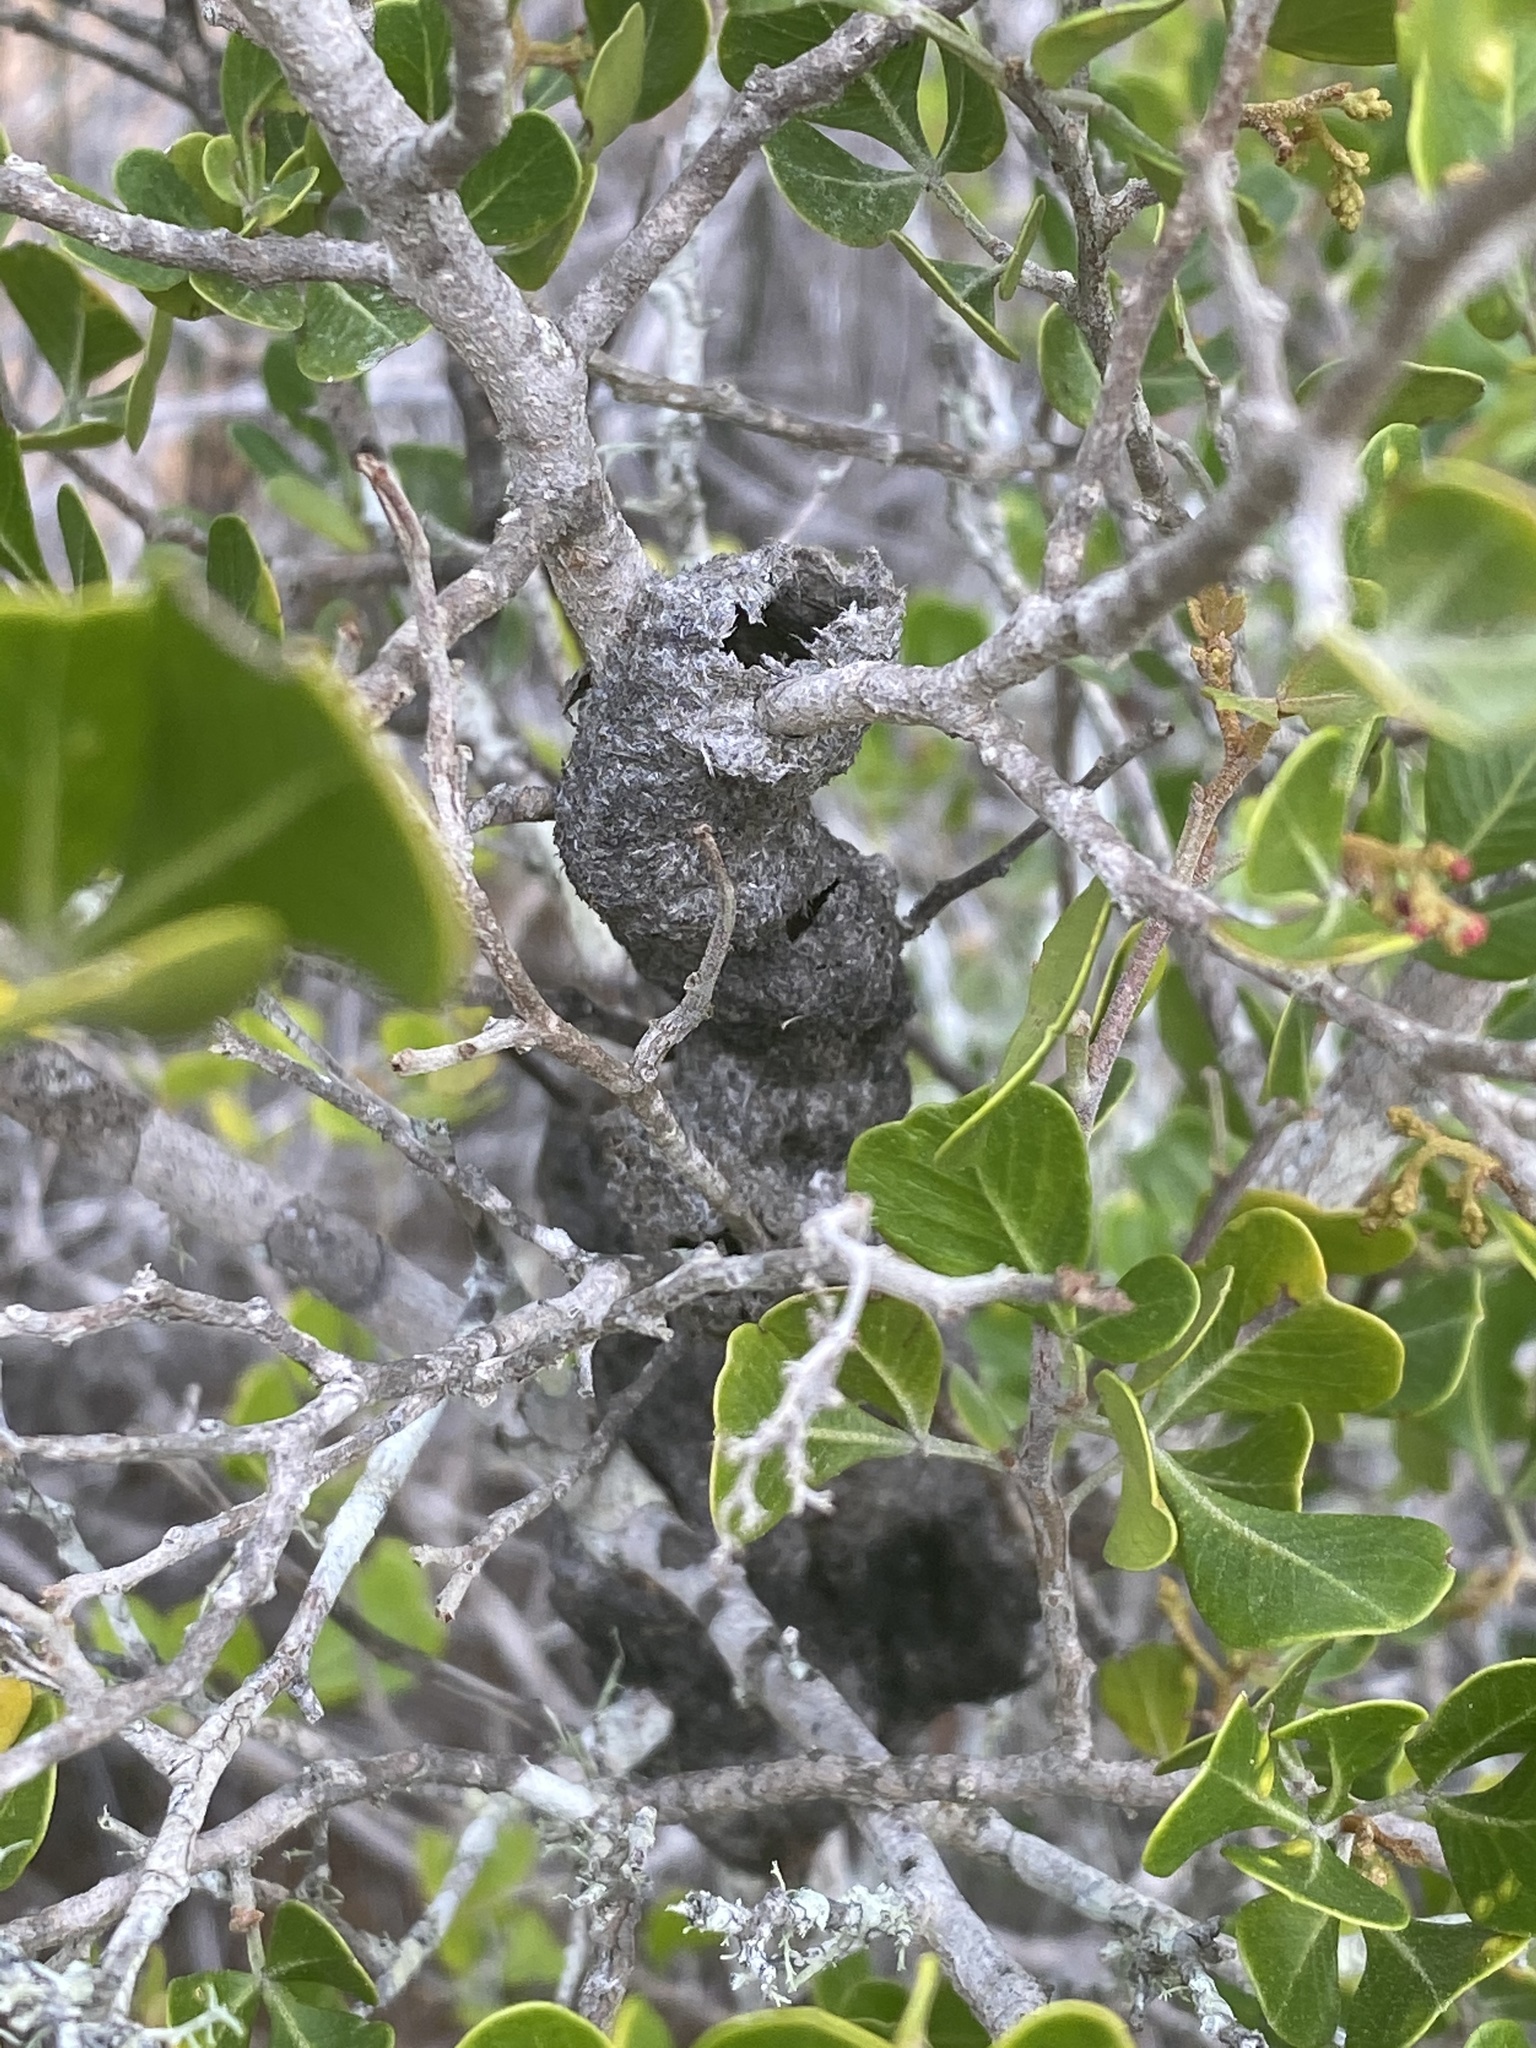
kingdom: Plantae
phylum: Tracheophyta
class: Magnoliopsida
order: Sapindales
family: Anacardiaceae
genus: Searsia
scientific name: Searsia glauca
